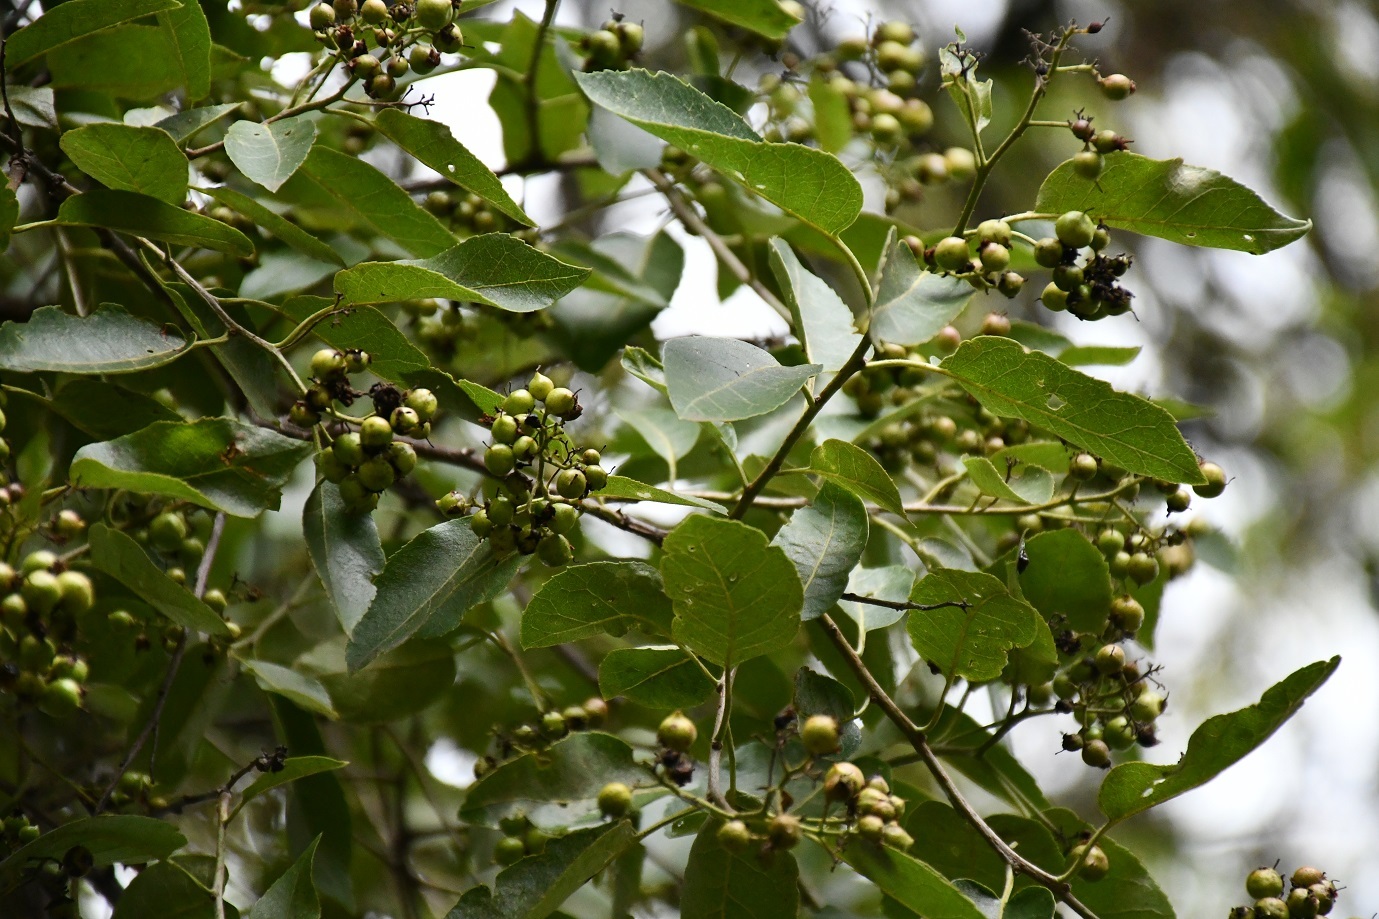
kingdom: Plantae
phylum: Tracheophyta
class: Magnoliopsida
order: Boraginales
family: Ehretiaceae
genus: Ehretia
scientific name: Ehretia tinifolia
